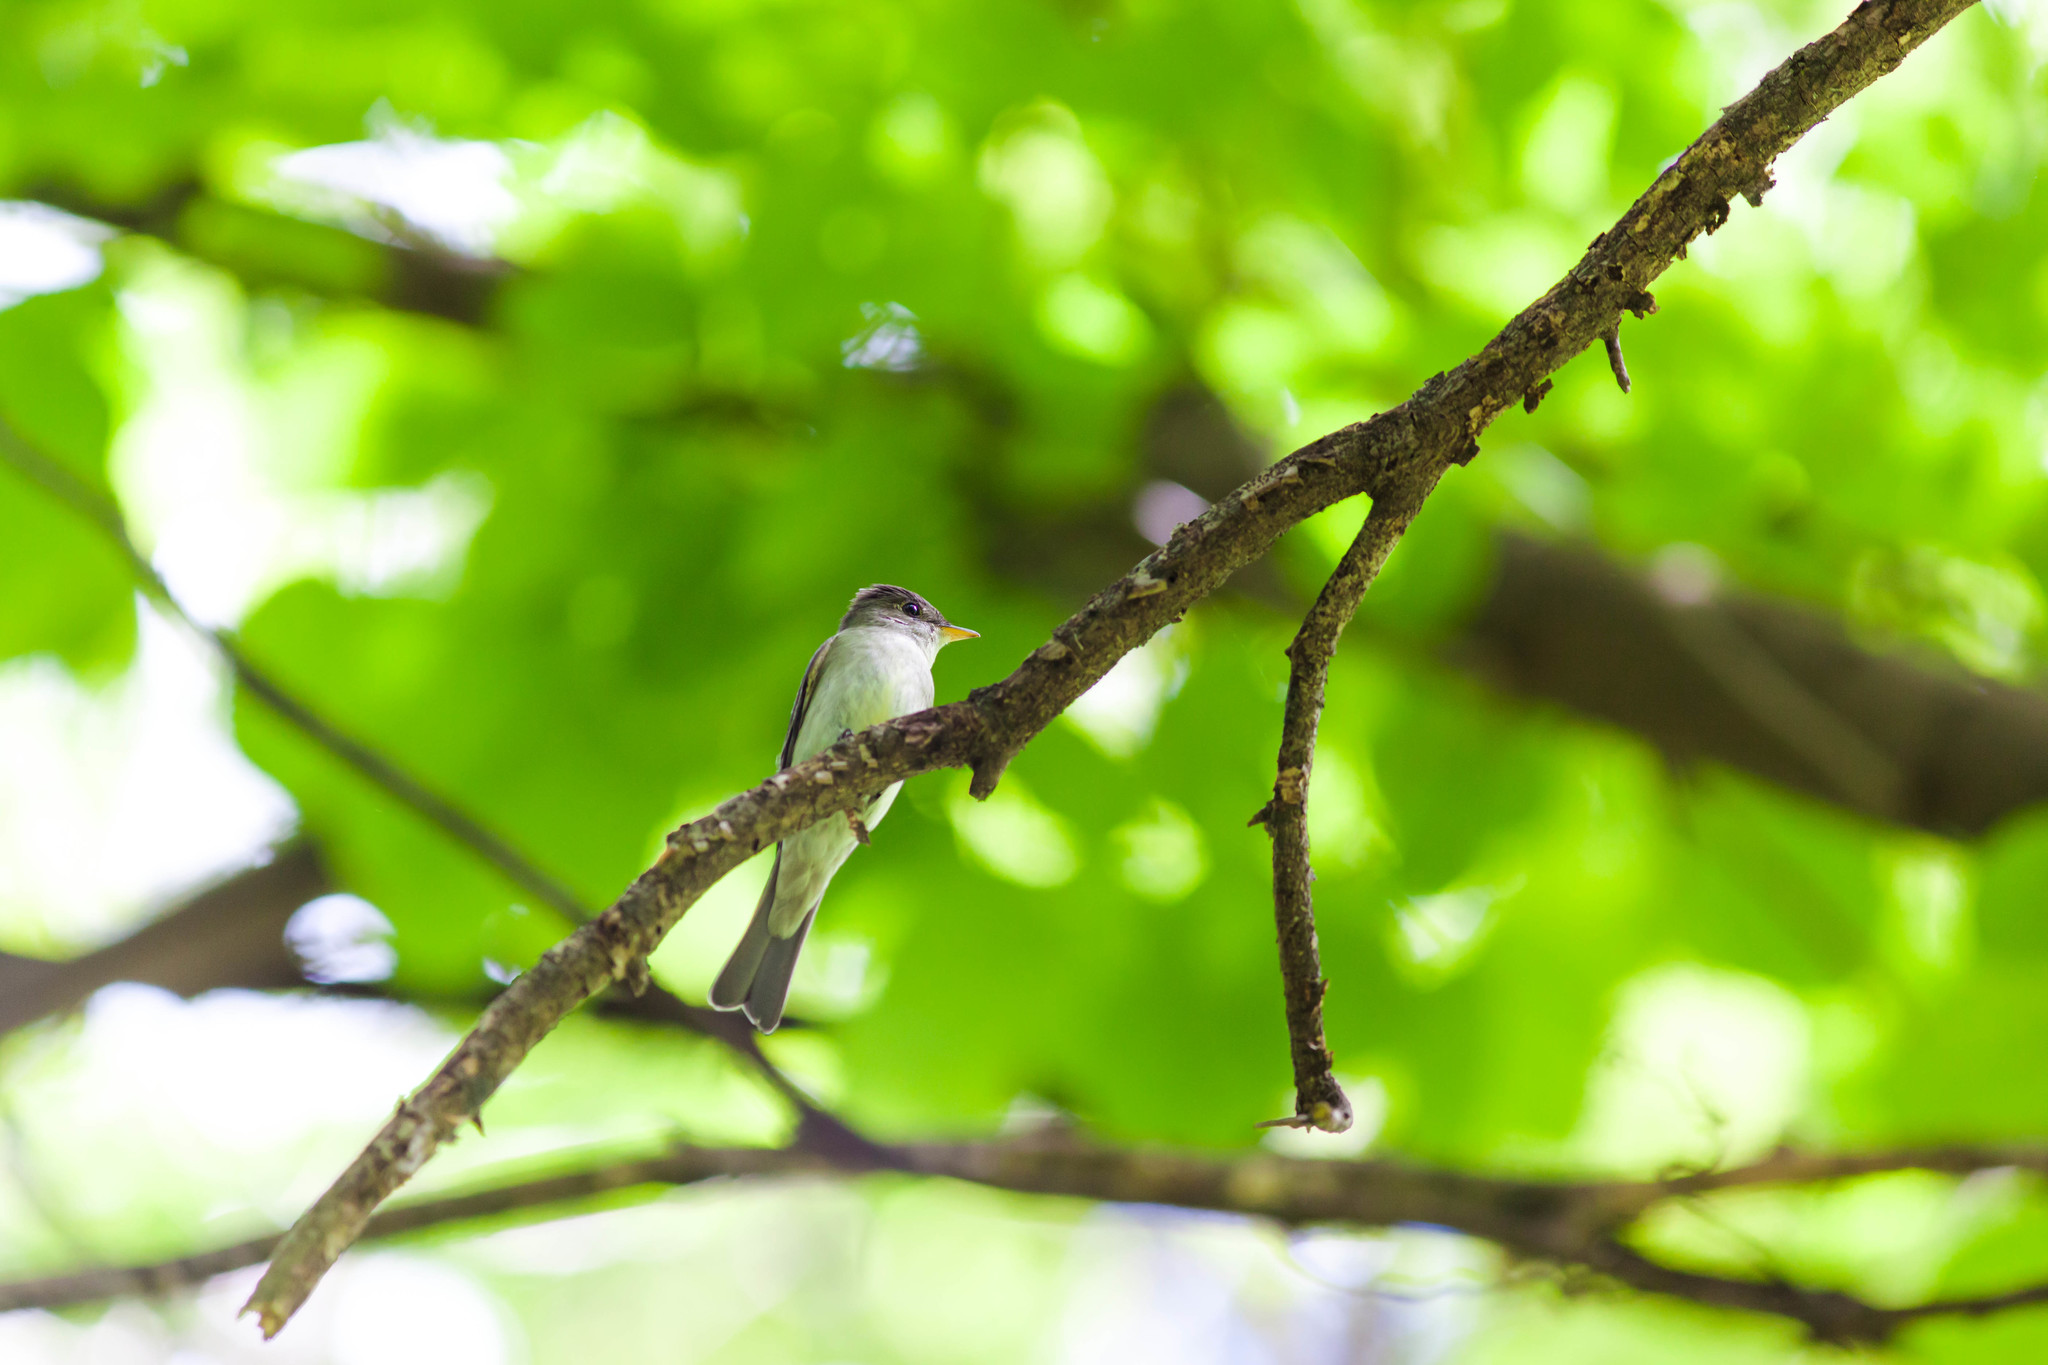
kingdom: Animalia
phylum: Chordata
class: Aves
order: Passeriformes
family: Tyrannidae
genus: Contopus
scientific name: Contopus virens
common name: Eastern wood-pewee
